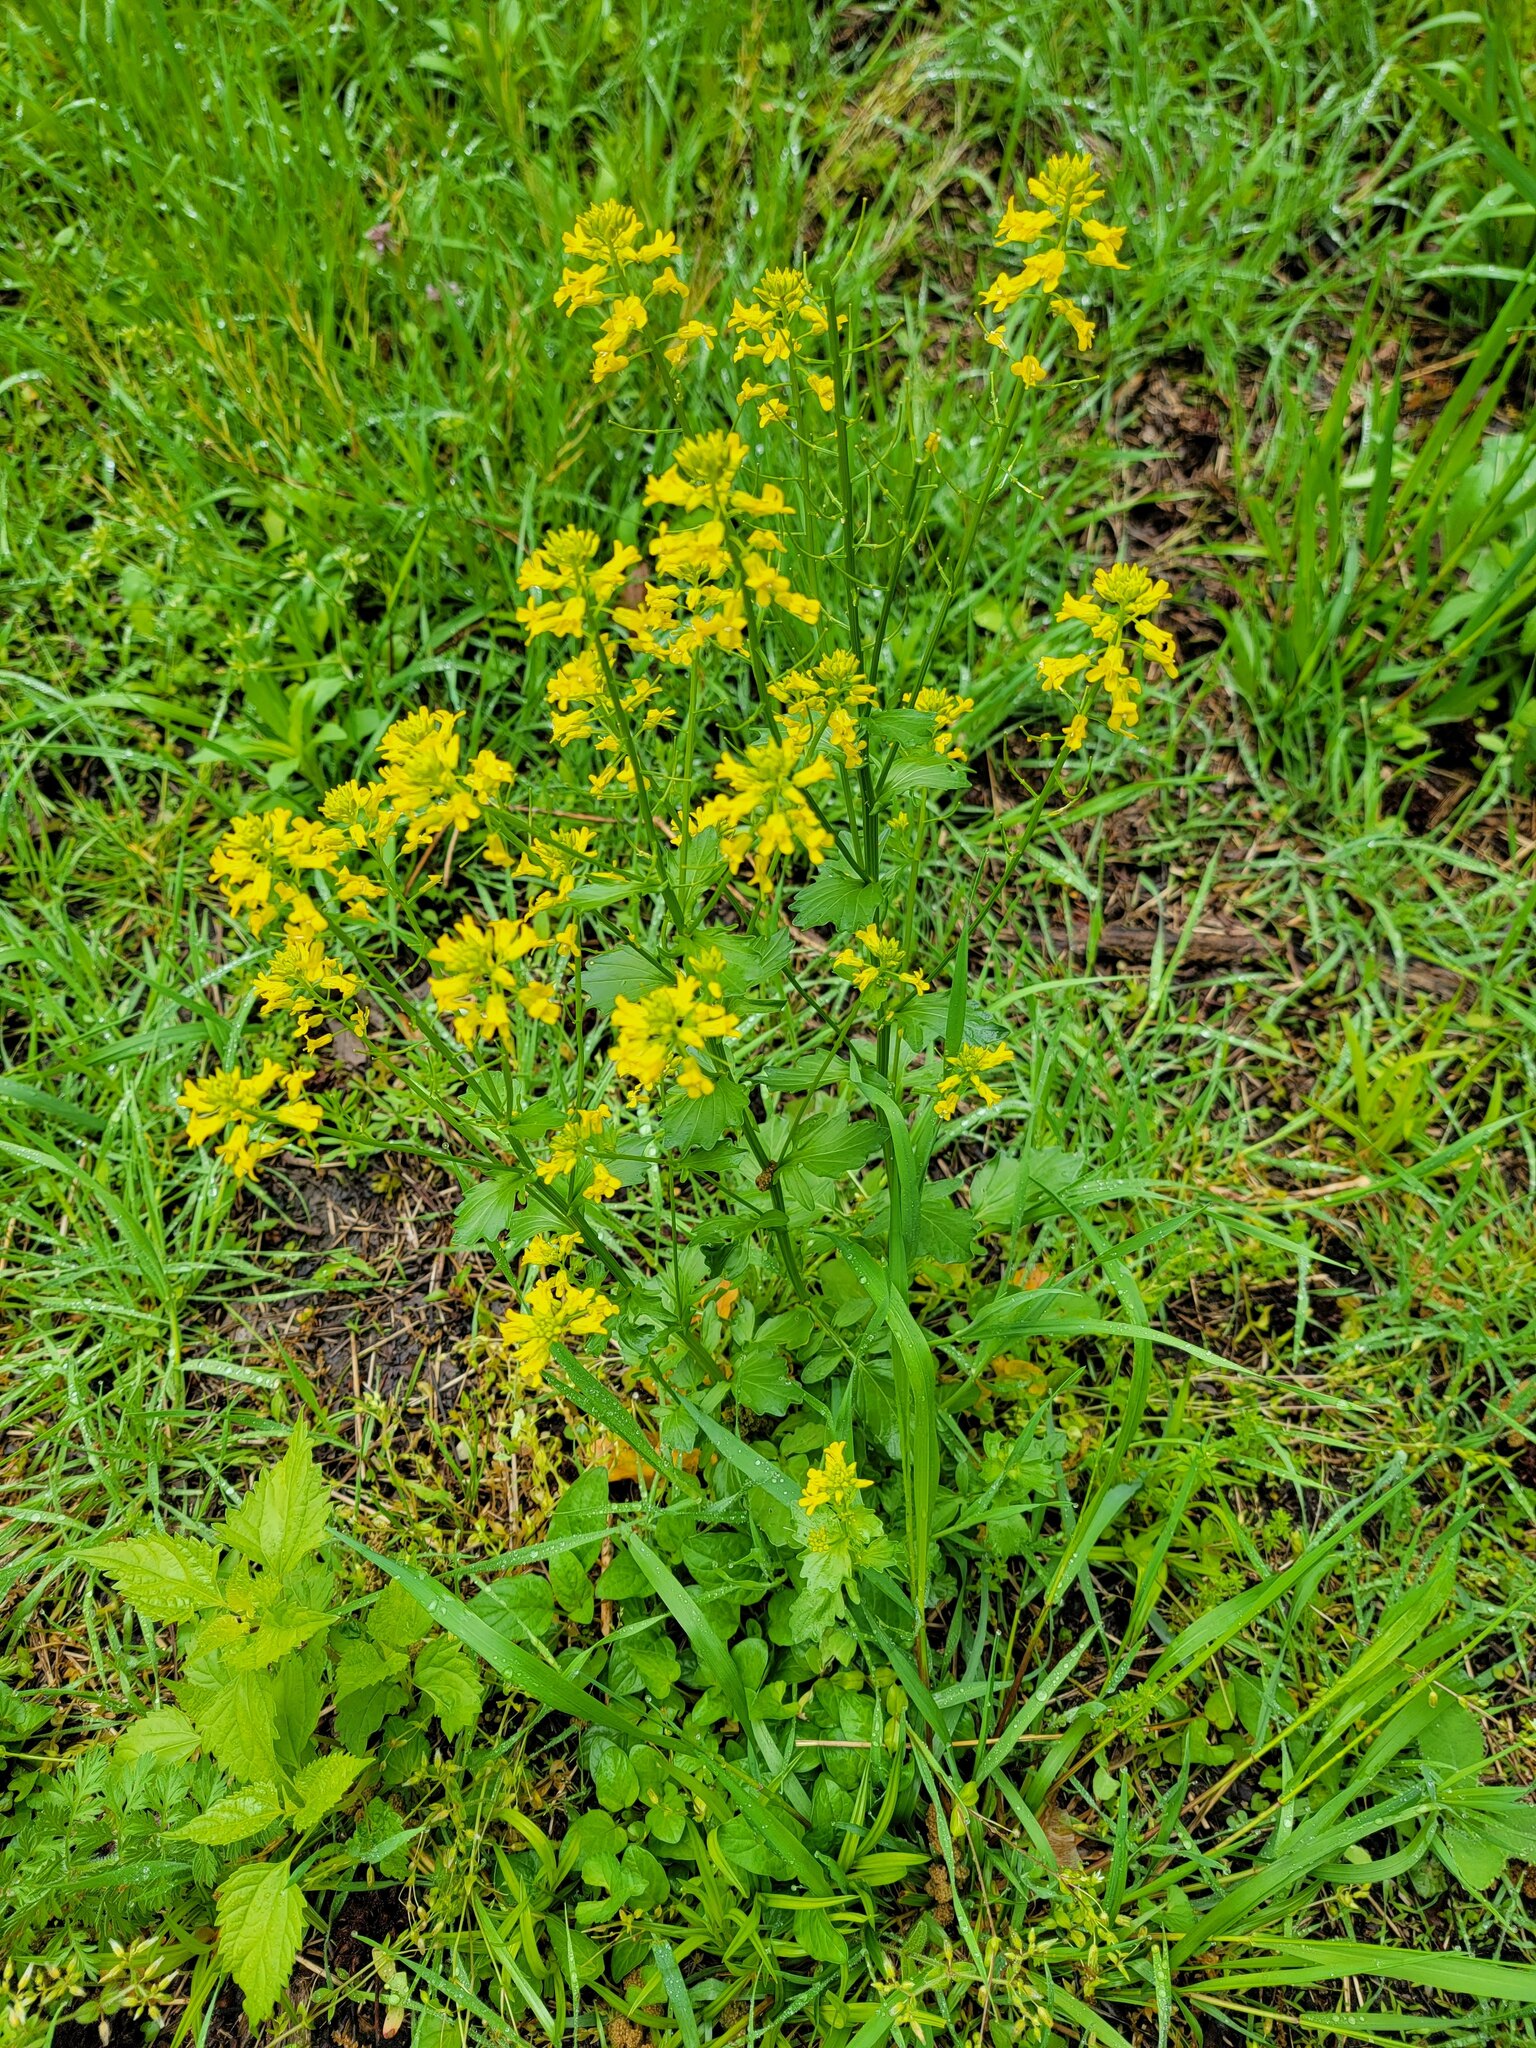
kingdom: Plantae
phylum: Tracheophyta
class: Magnoliopsida
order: Brassicales
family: Brassicaceae
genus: Barbarea
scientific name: Barbarea vulgaris
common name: Cressy-greens
